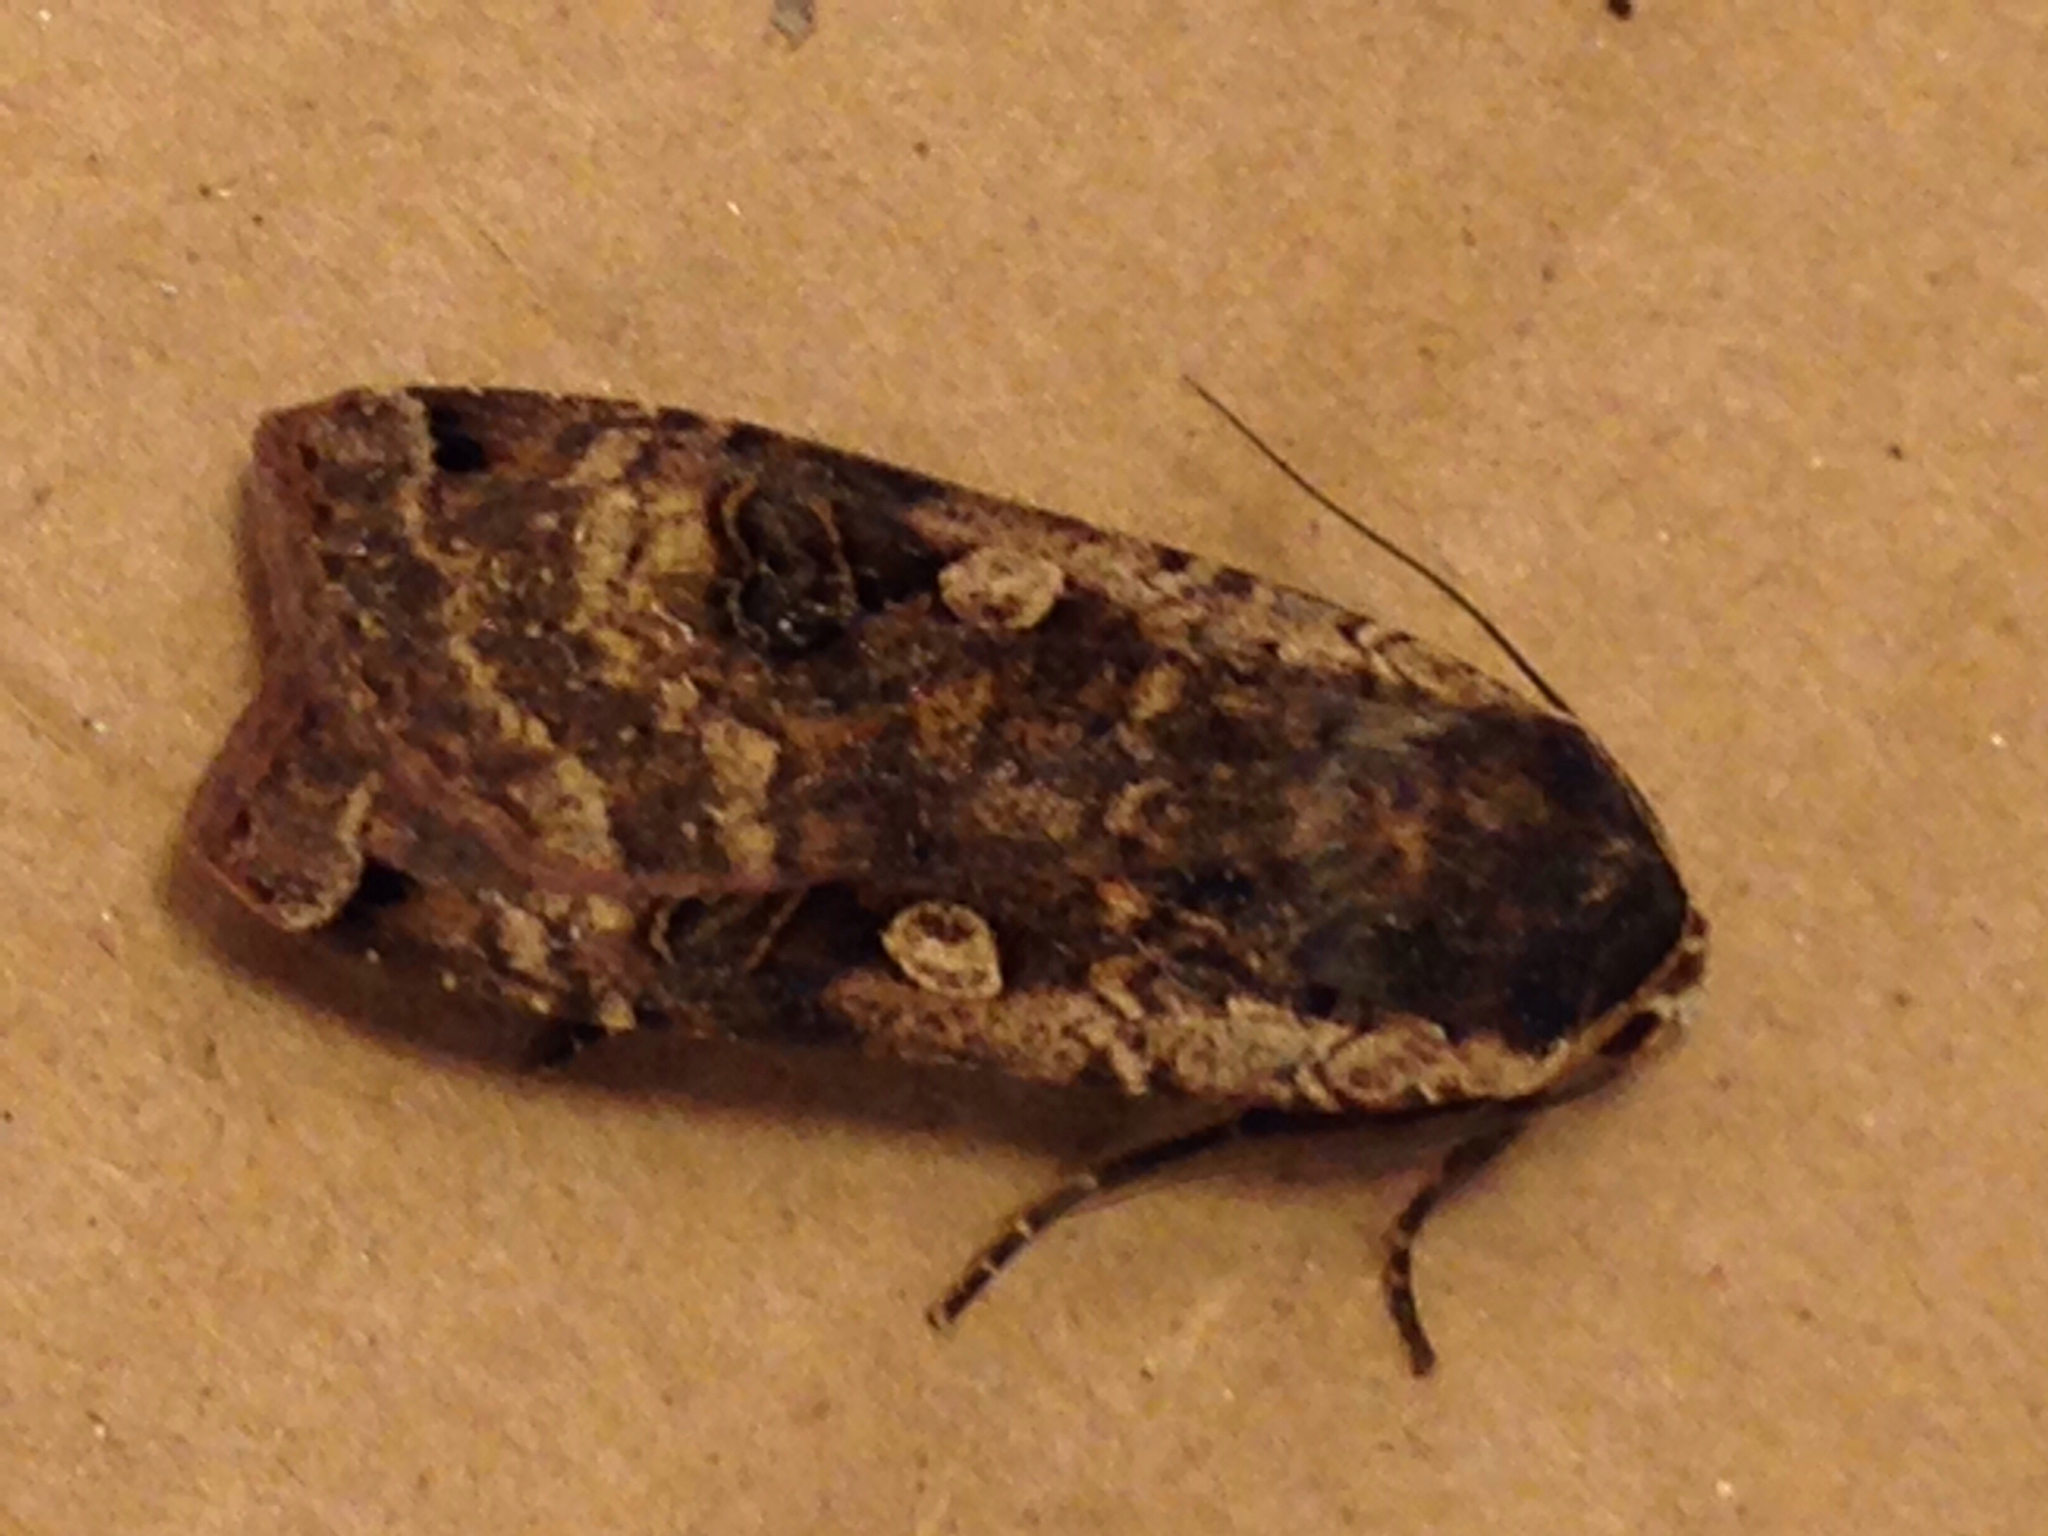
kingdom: Animalia
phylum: Arthropoda
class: Insecta
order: Lepidoptera
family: Noctuidae
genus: Noctua
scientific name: Noctua pronuba
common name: Large yellow underwing
